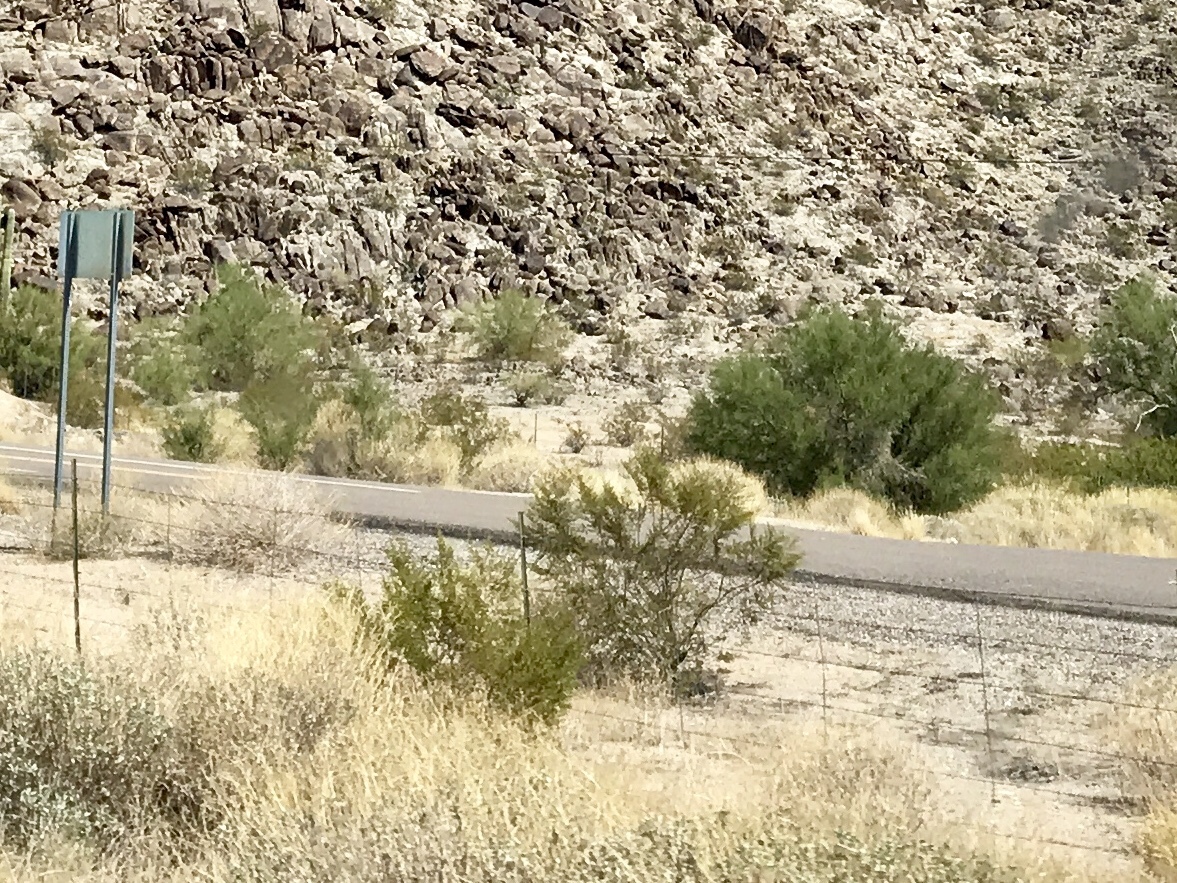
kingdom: Plantae
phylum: Tracheophyta
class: Magnoliopsida
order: Zygophyllales
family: Zygophyllaceae
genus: Larrea
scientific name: Larrea tridentata
